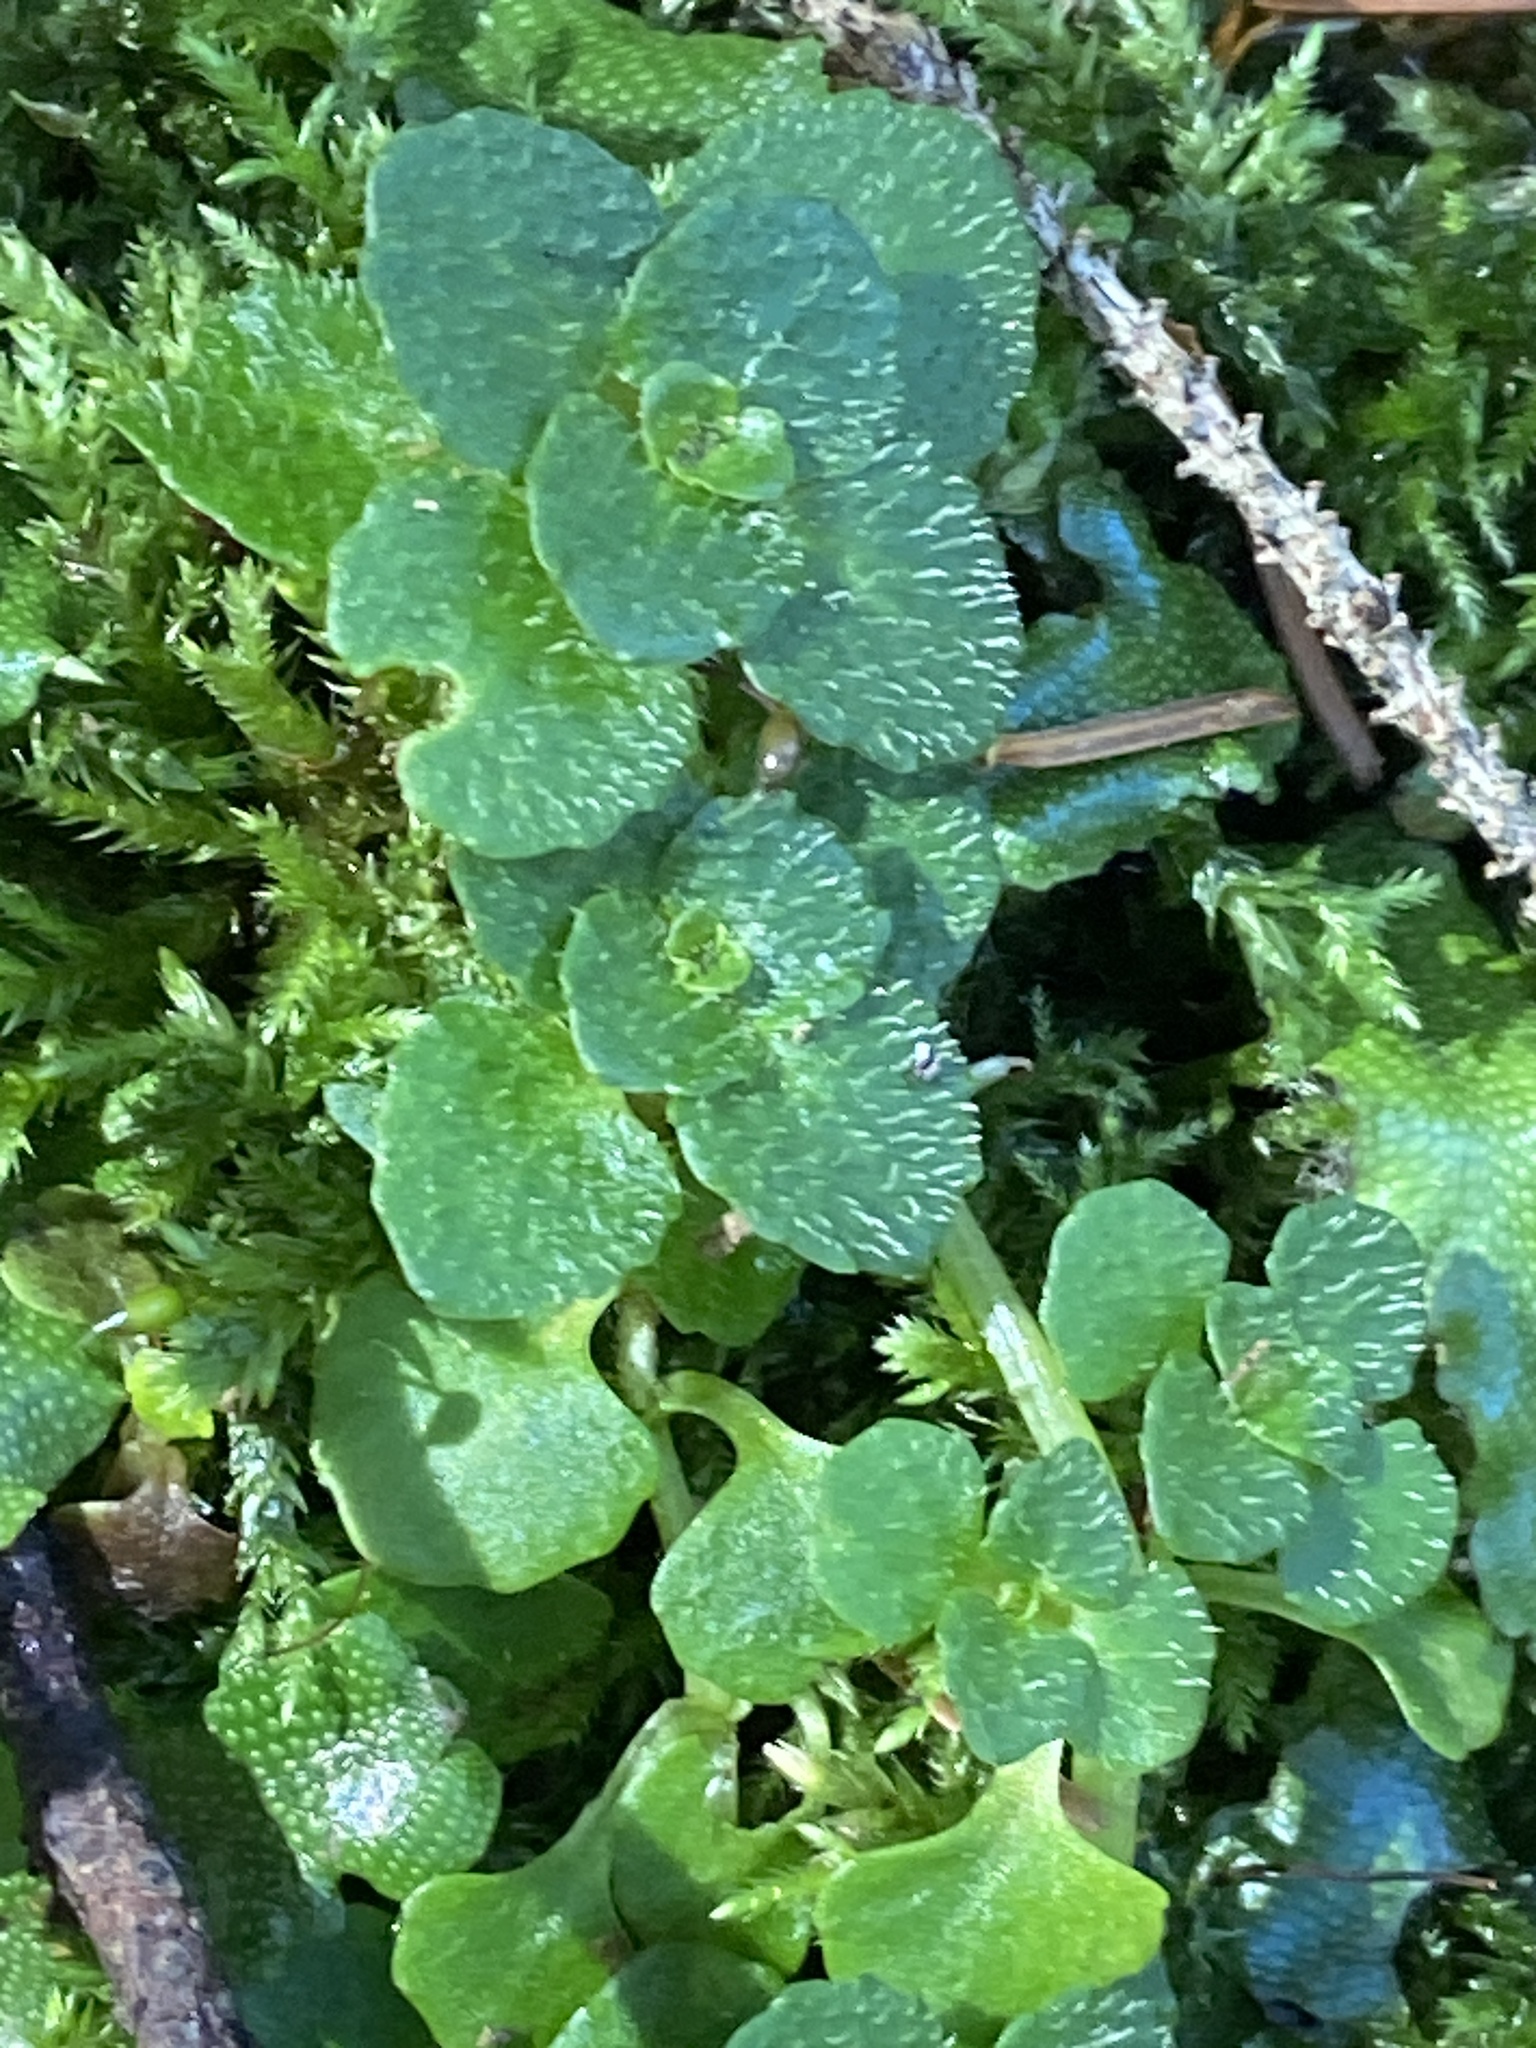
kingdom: Plantae
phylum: Tracheophyta
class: Magnoliopsida
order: Saxifragales
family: Saxifragaceae
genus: Chrysosplenium
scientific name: Chrysosplenium oppositifolium
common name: Opposite-leaved golden-saxifrage
